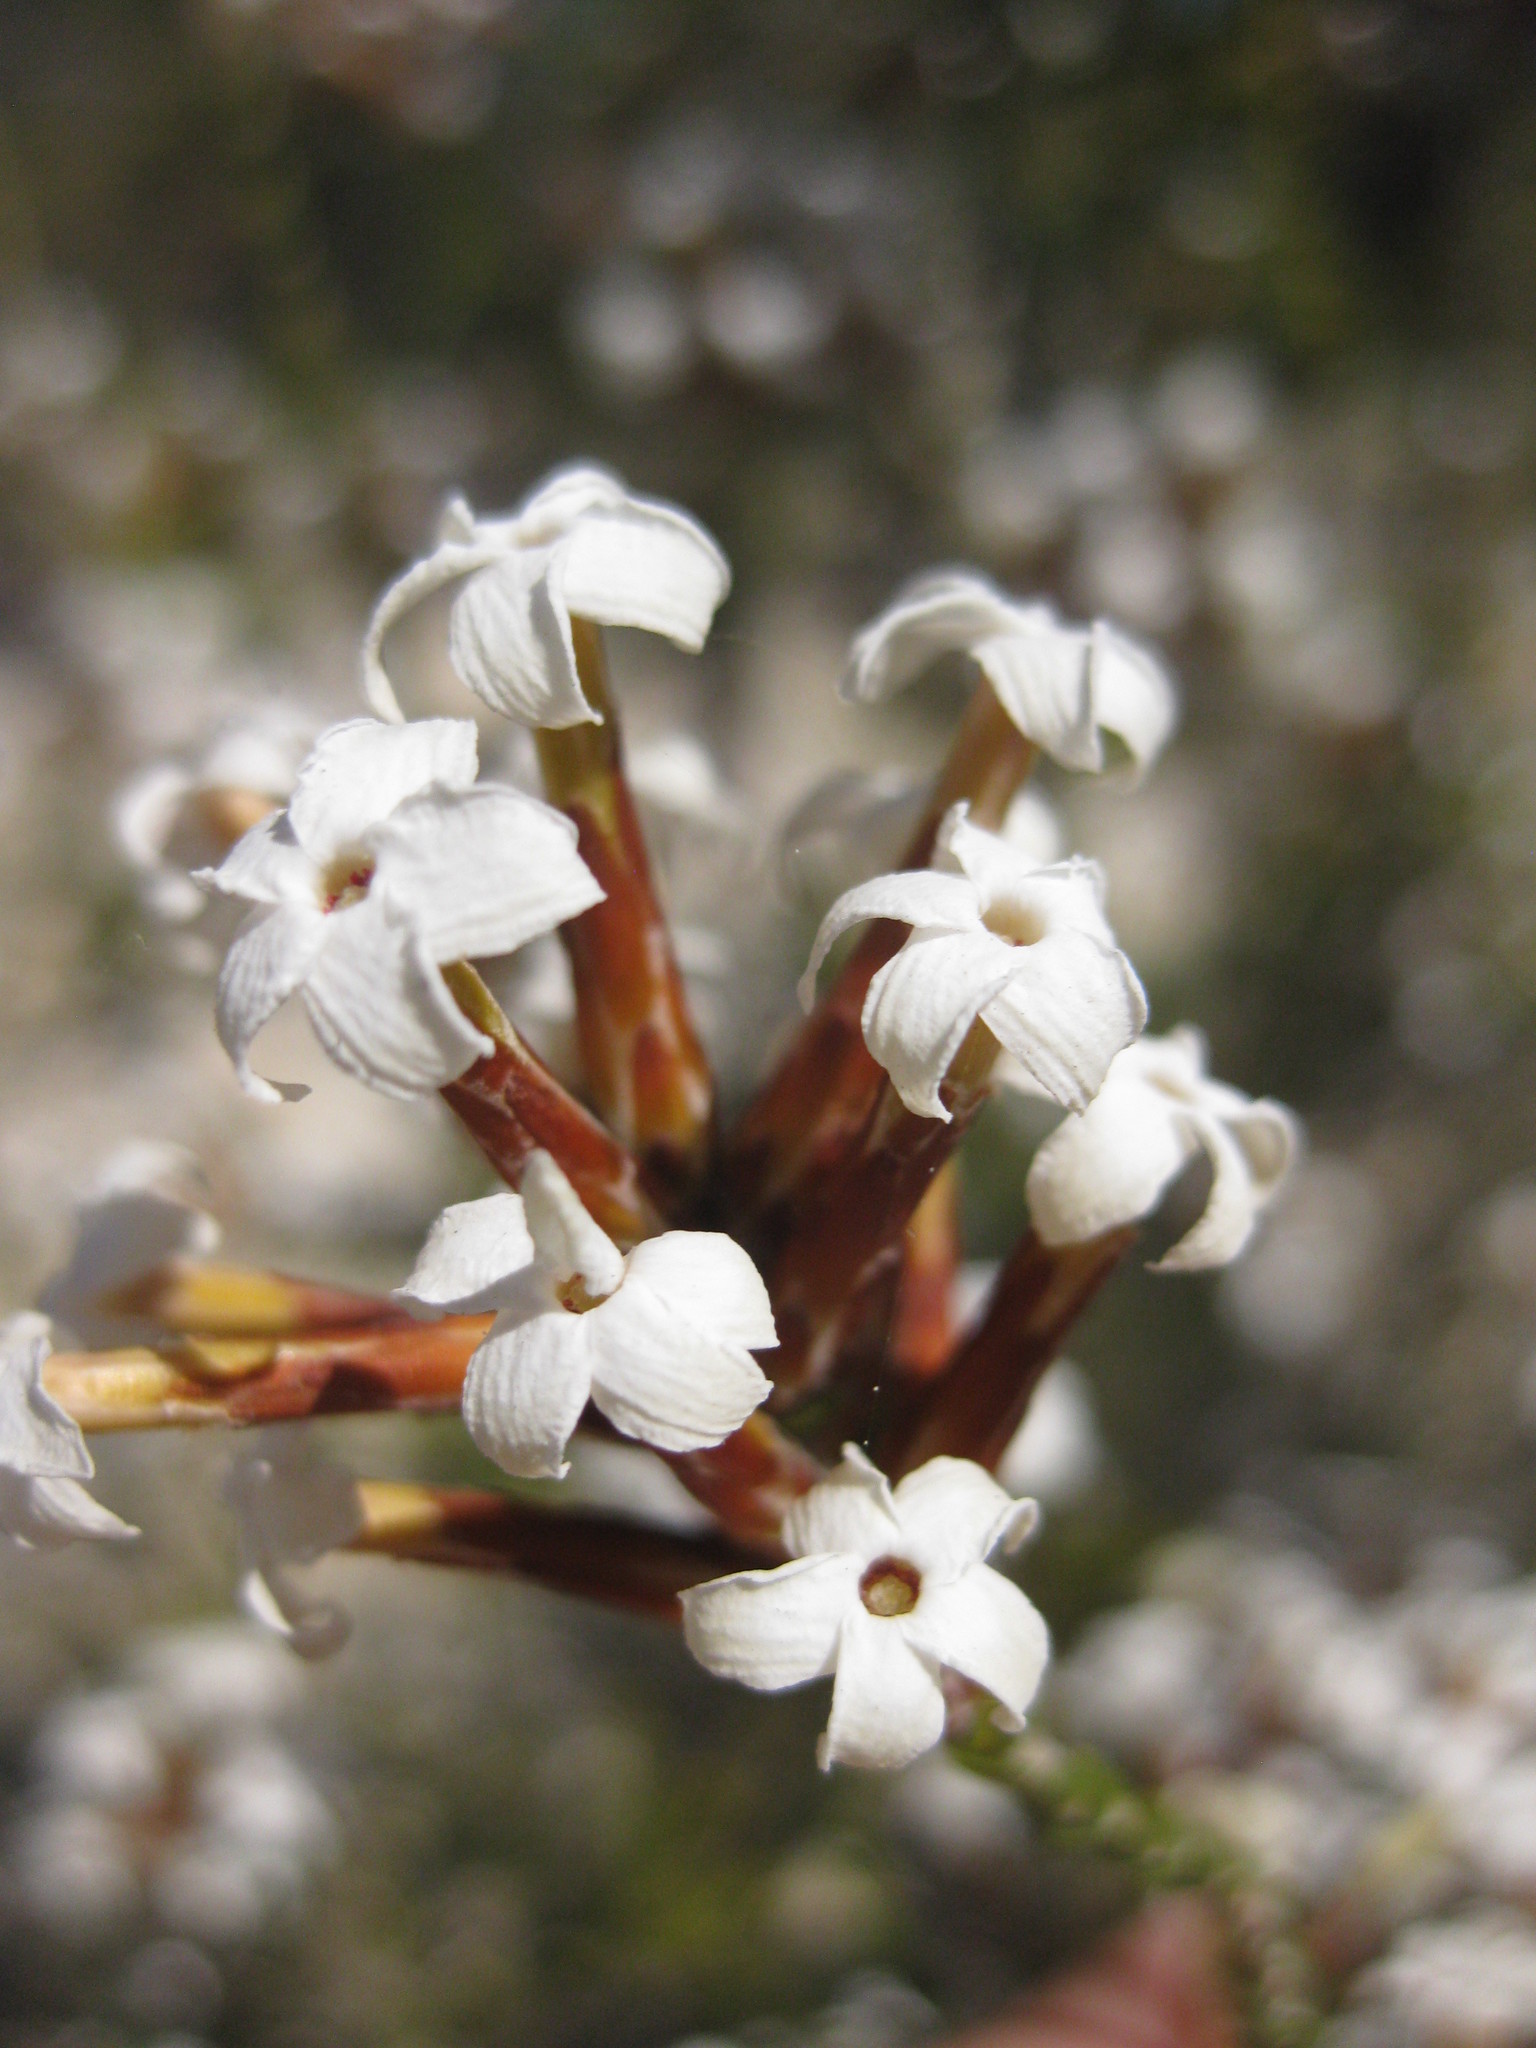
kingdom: Plantae
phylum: Tracheophyta
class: Magnoliopsida
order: Ericales
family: Ericaceae
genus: Lysinema
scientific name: Lysinema pentapetalum
